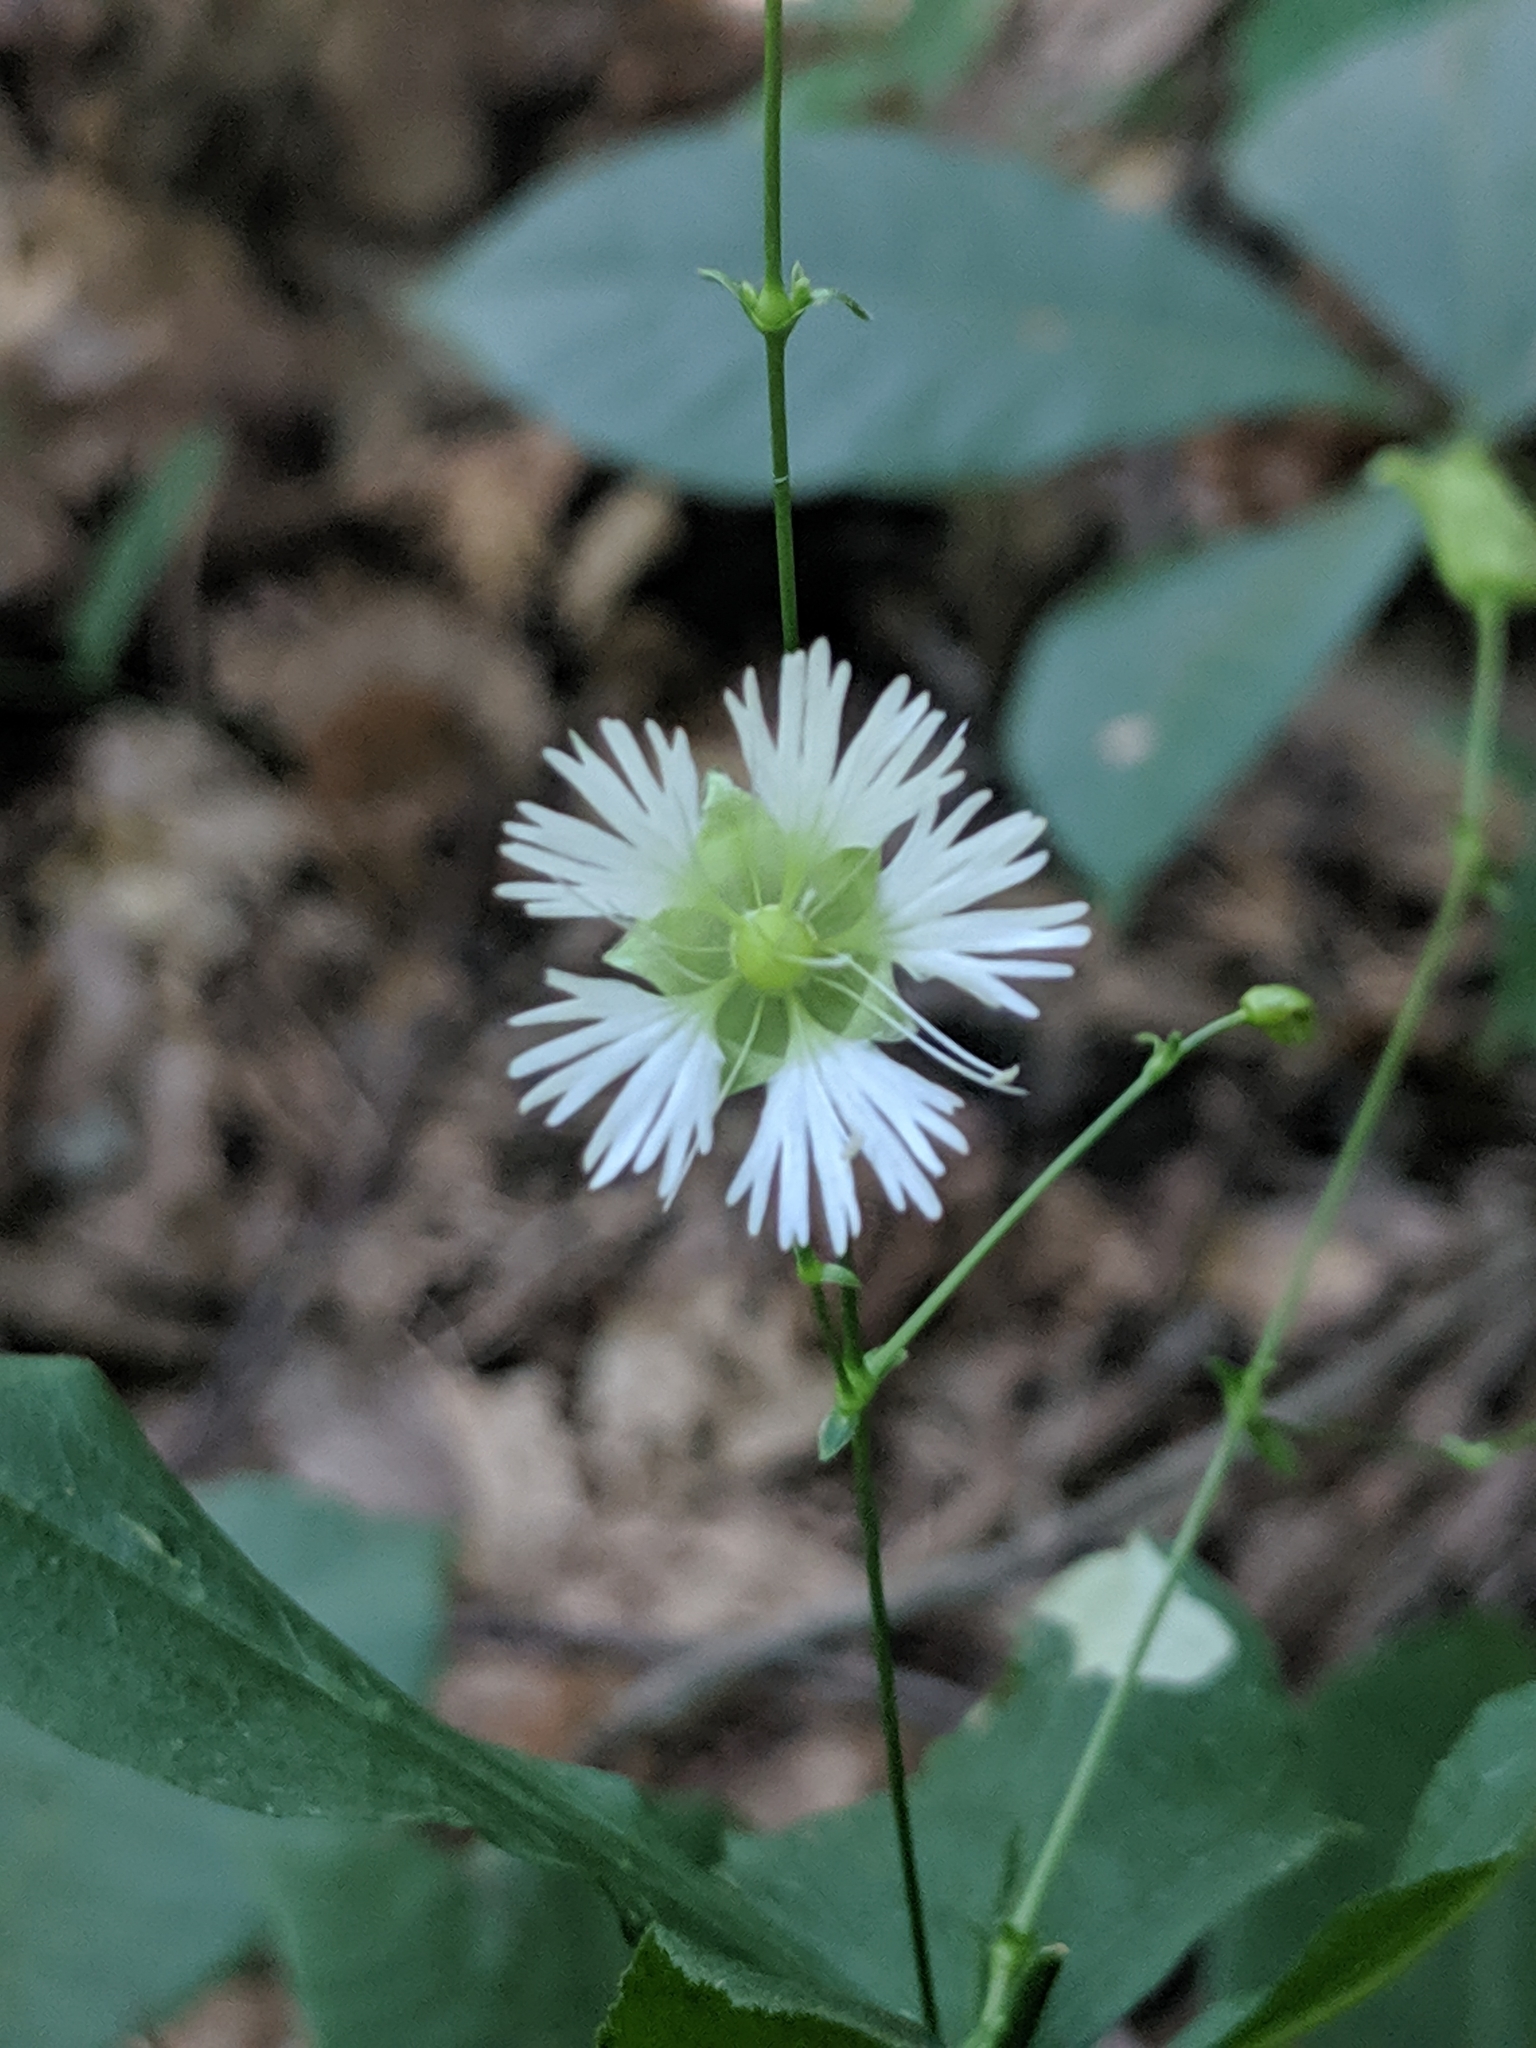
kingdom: Plantae
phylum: Tracheophyta
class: Magnoliopsida
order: Caryophyllales
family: Caryophyllaceae
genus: Silene
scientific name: Silene stellata
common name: Starry campion
